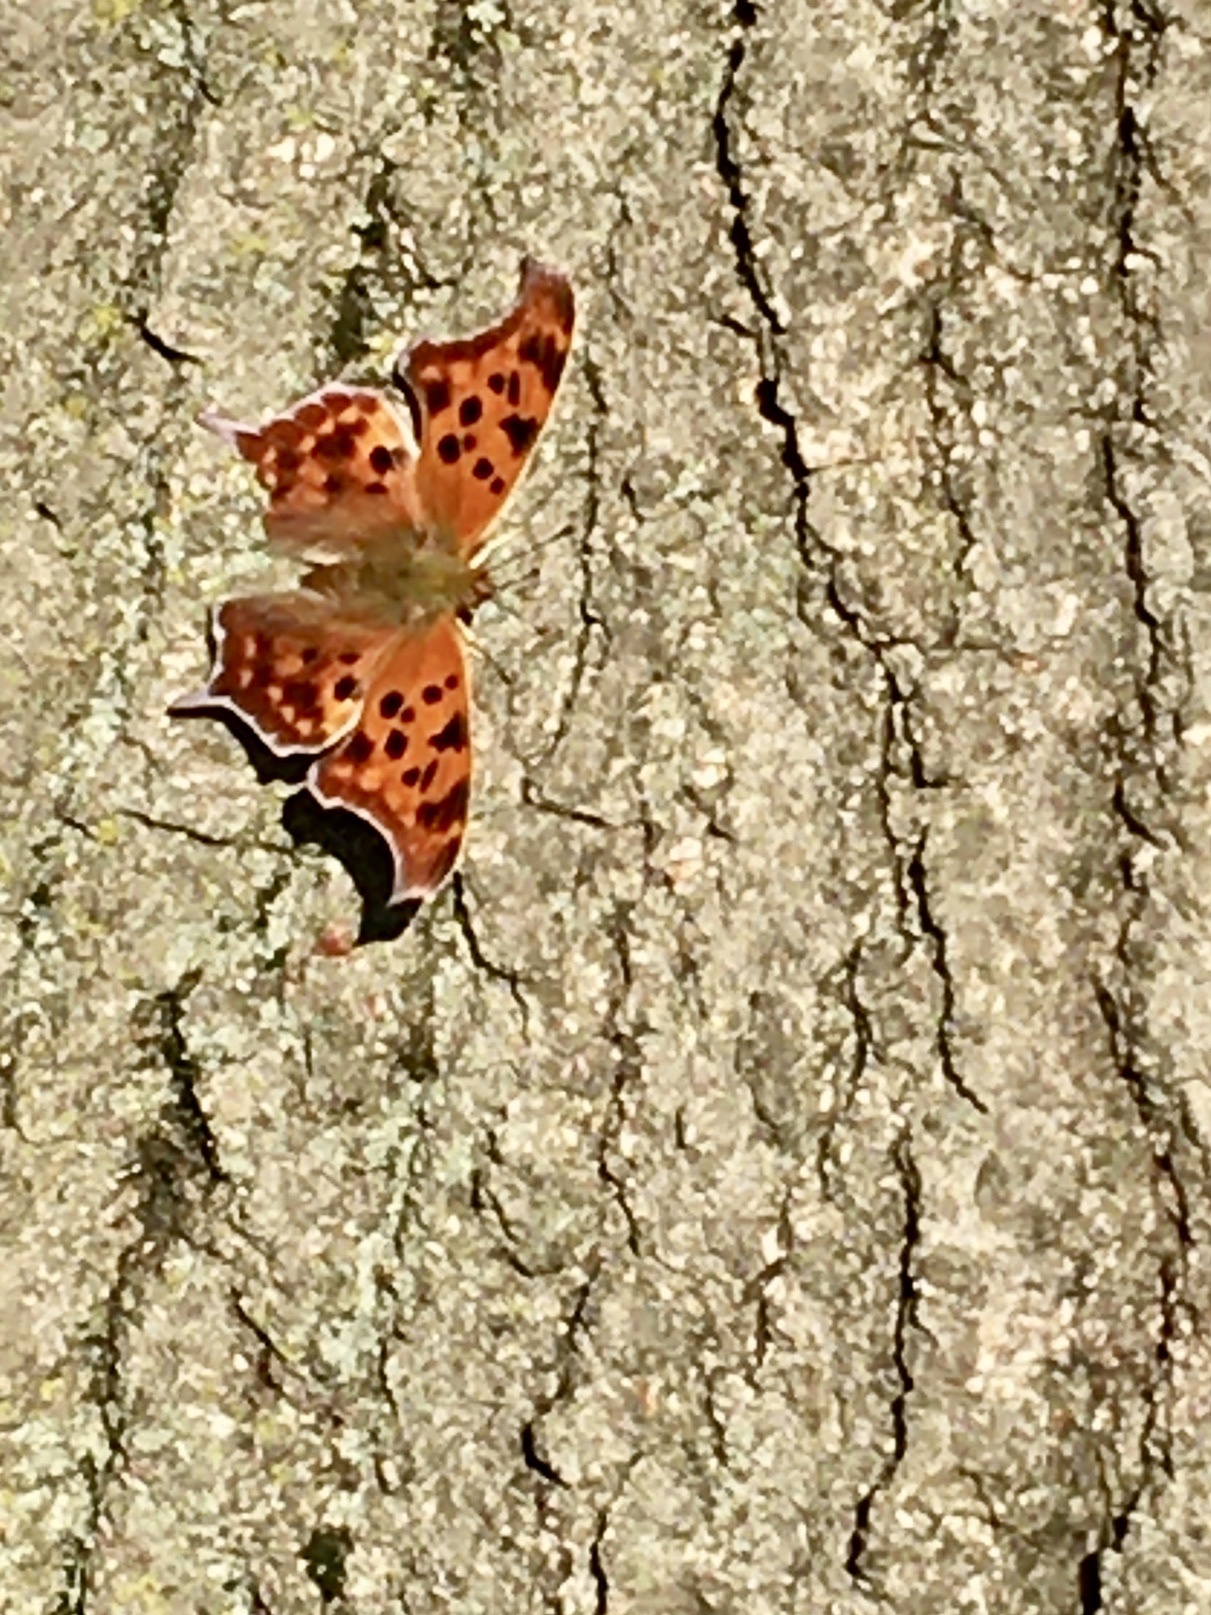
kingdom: Animalia
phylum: Arthropoda
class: Insecta
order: Lepidoptera
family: Nymphalidae
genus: Polygonia
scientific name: Polygonia interrogationis
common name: Question mark
